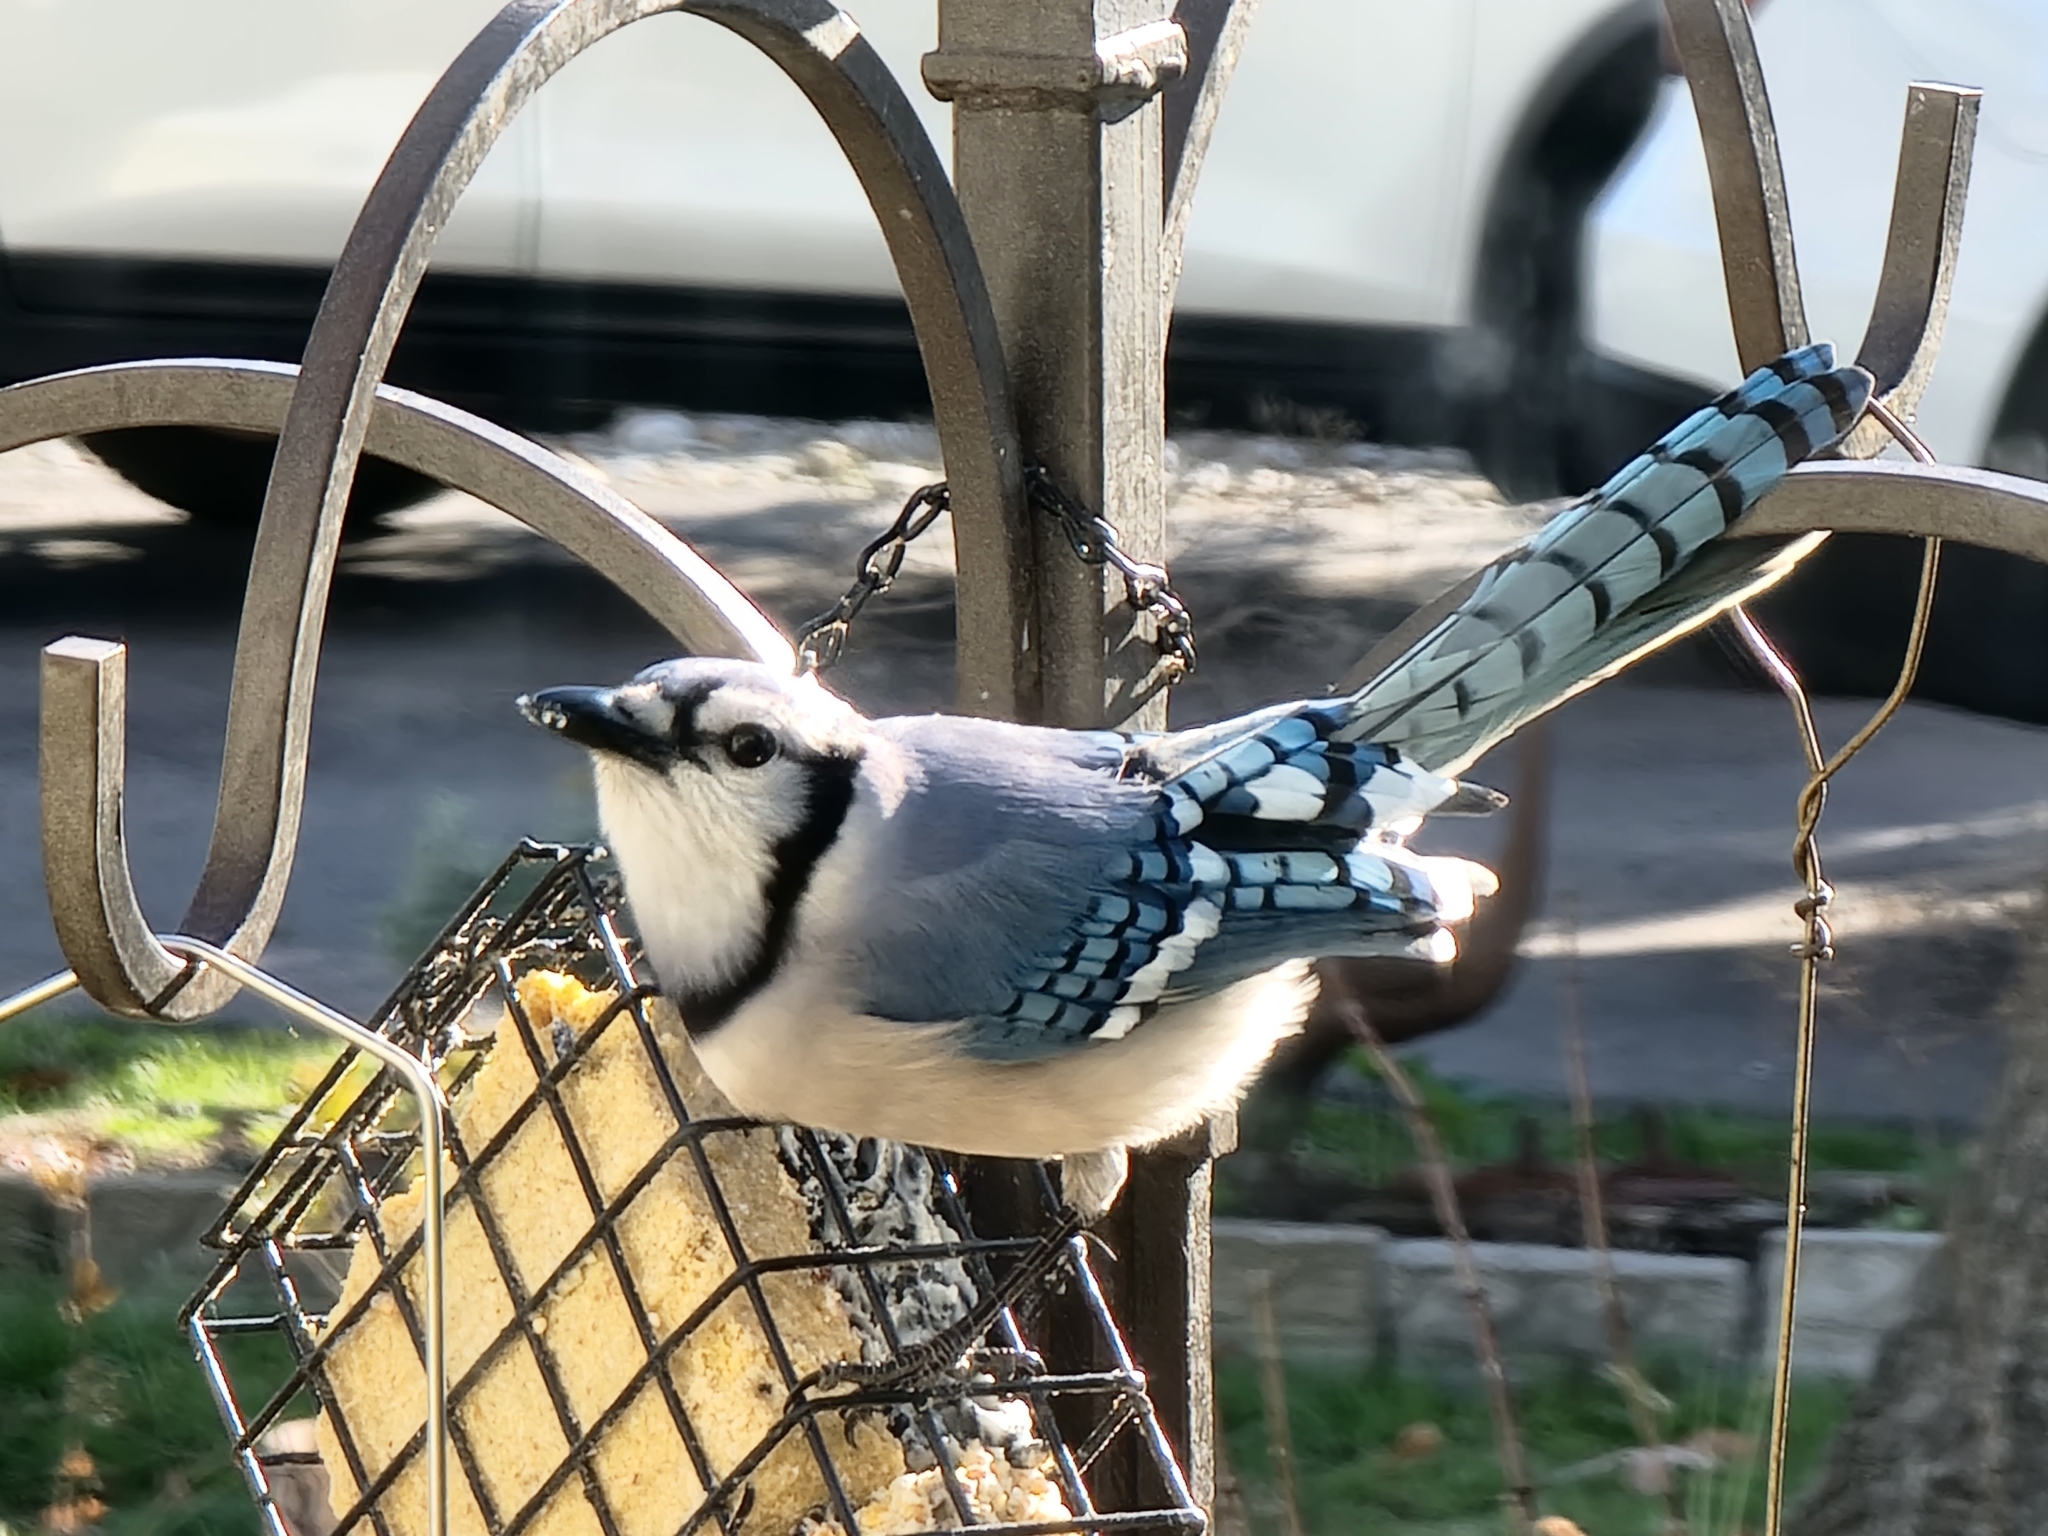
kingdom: Animalia
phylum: Chordata
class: Aves
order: Passeriformes
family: Corvidae
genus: Cyanocitta
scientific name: Cyanocitta cristata
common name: Blue jay
